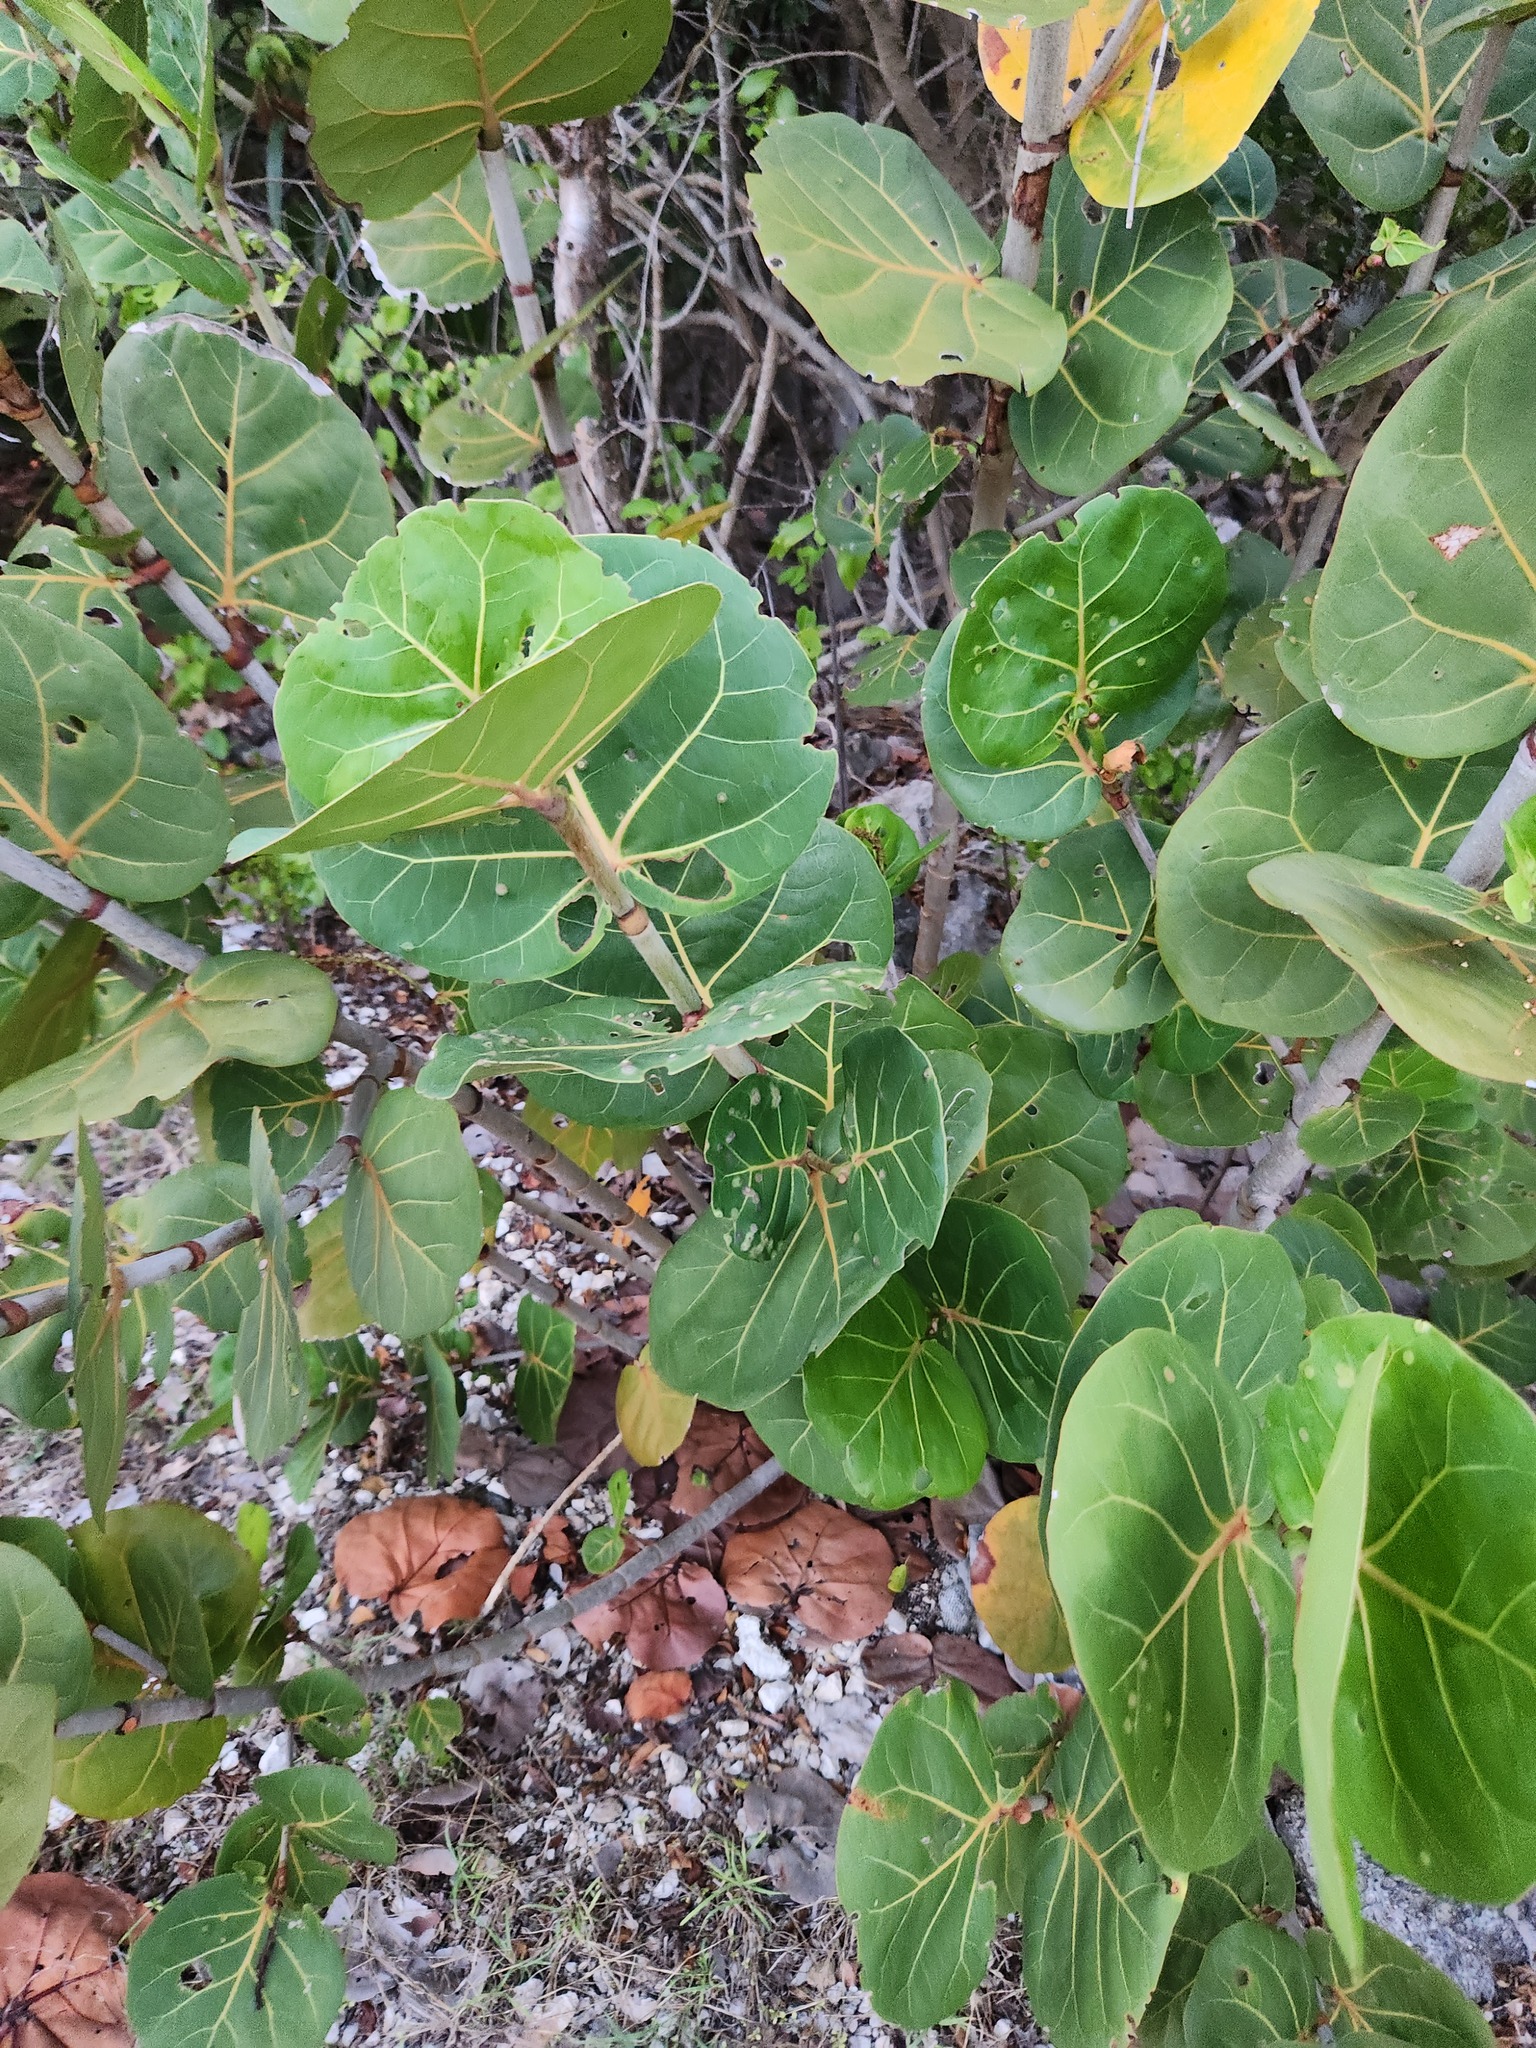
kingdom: Plantae
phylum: Tracheophyta
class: Magnoliopsida
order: Caryophyllales
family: Polygonaceae
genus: Coccoloba
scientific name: Coccoloba uvifera
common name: Seagrape
